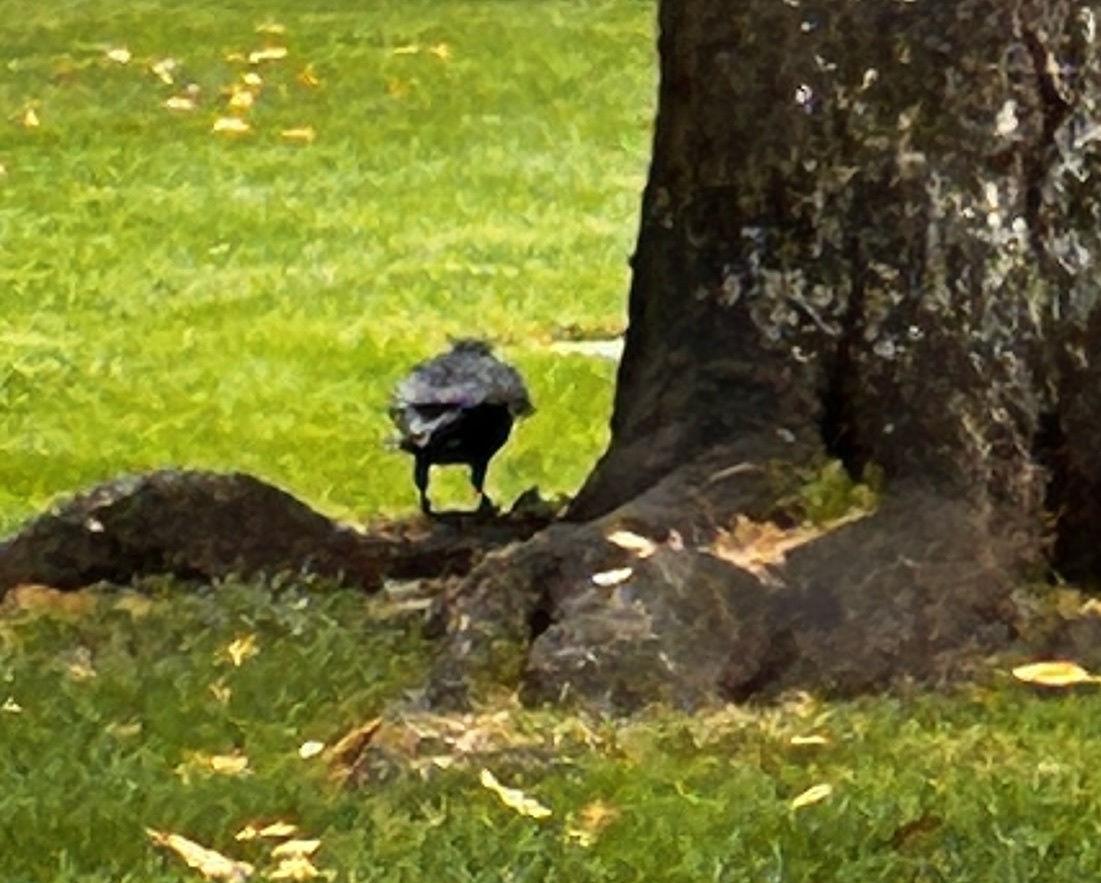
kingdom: Animalia
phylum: Chordata
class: Aves
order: Passeriformes
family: Corvidae
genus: Corvus
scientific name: Corvus corone
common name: Carrion crow
